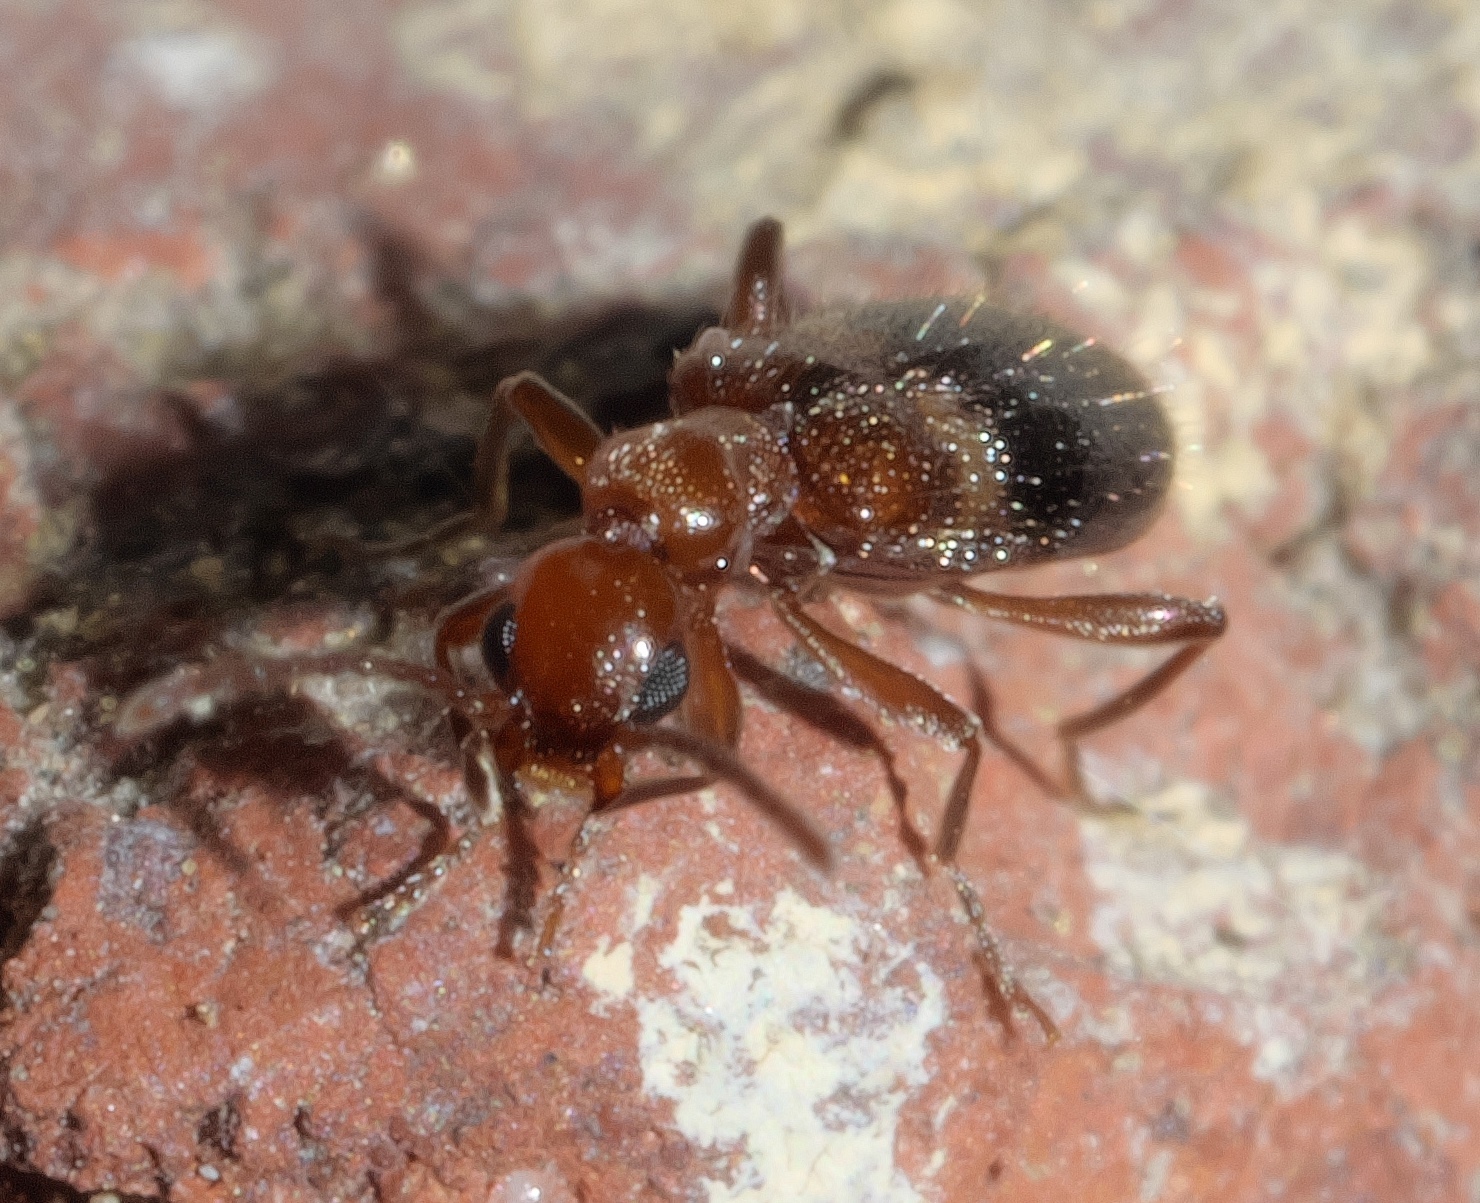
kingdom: Animalia
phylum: Arthropoda
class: Insecta
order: Coleoptera
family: Anthicidae
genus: Malporus
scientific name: Malporus cinctus
